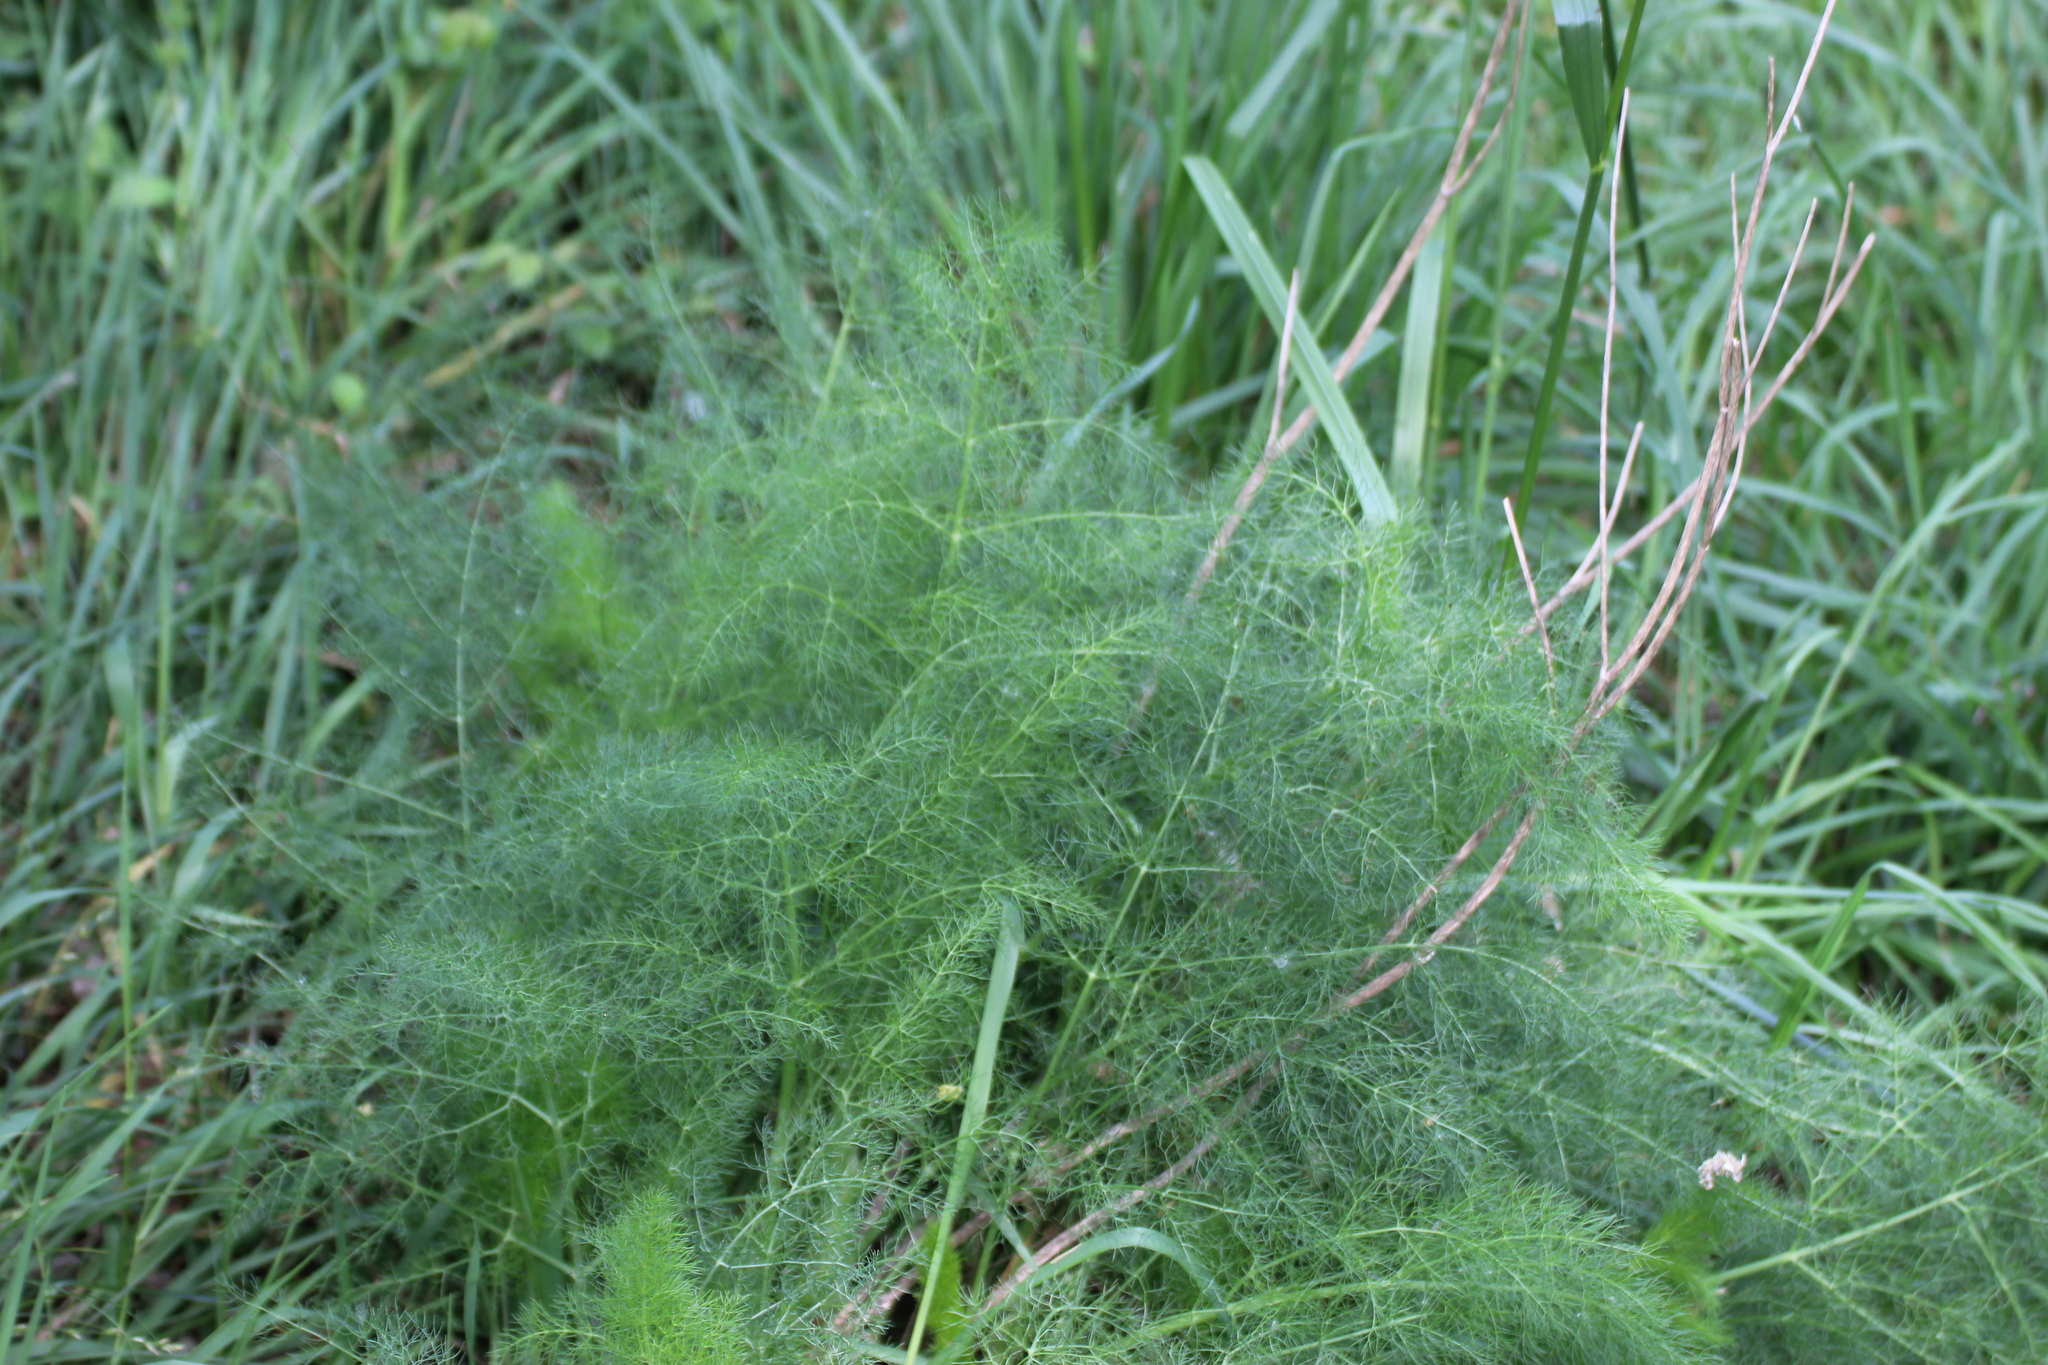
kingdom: Plantae
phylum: Tracheophyta
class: Magnoliopsida
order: Apiales
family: Apiaceae
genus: Foeniculum
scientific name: Foeniculum vulgare
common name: Fennel
